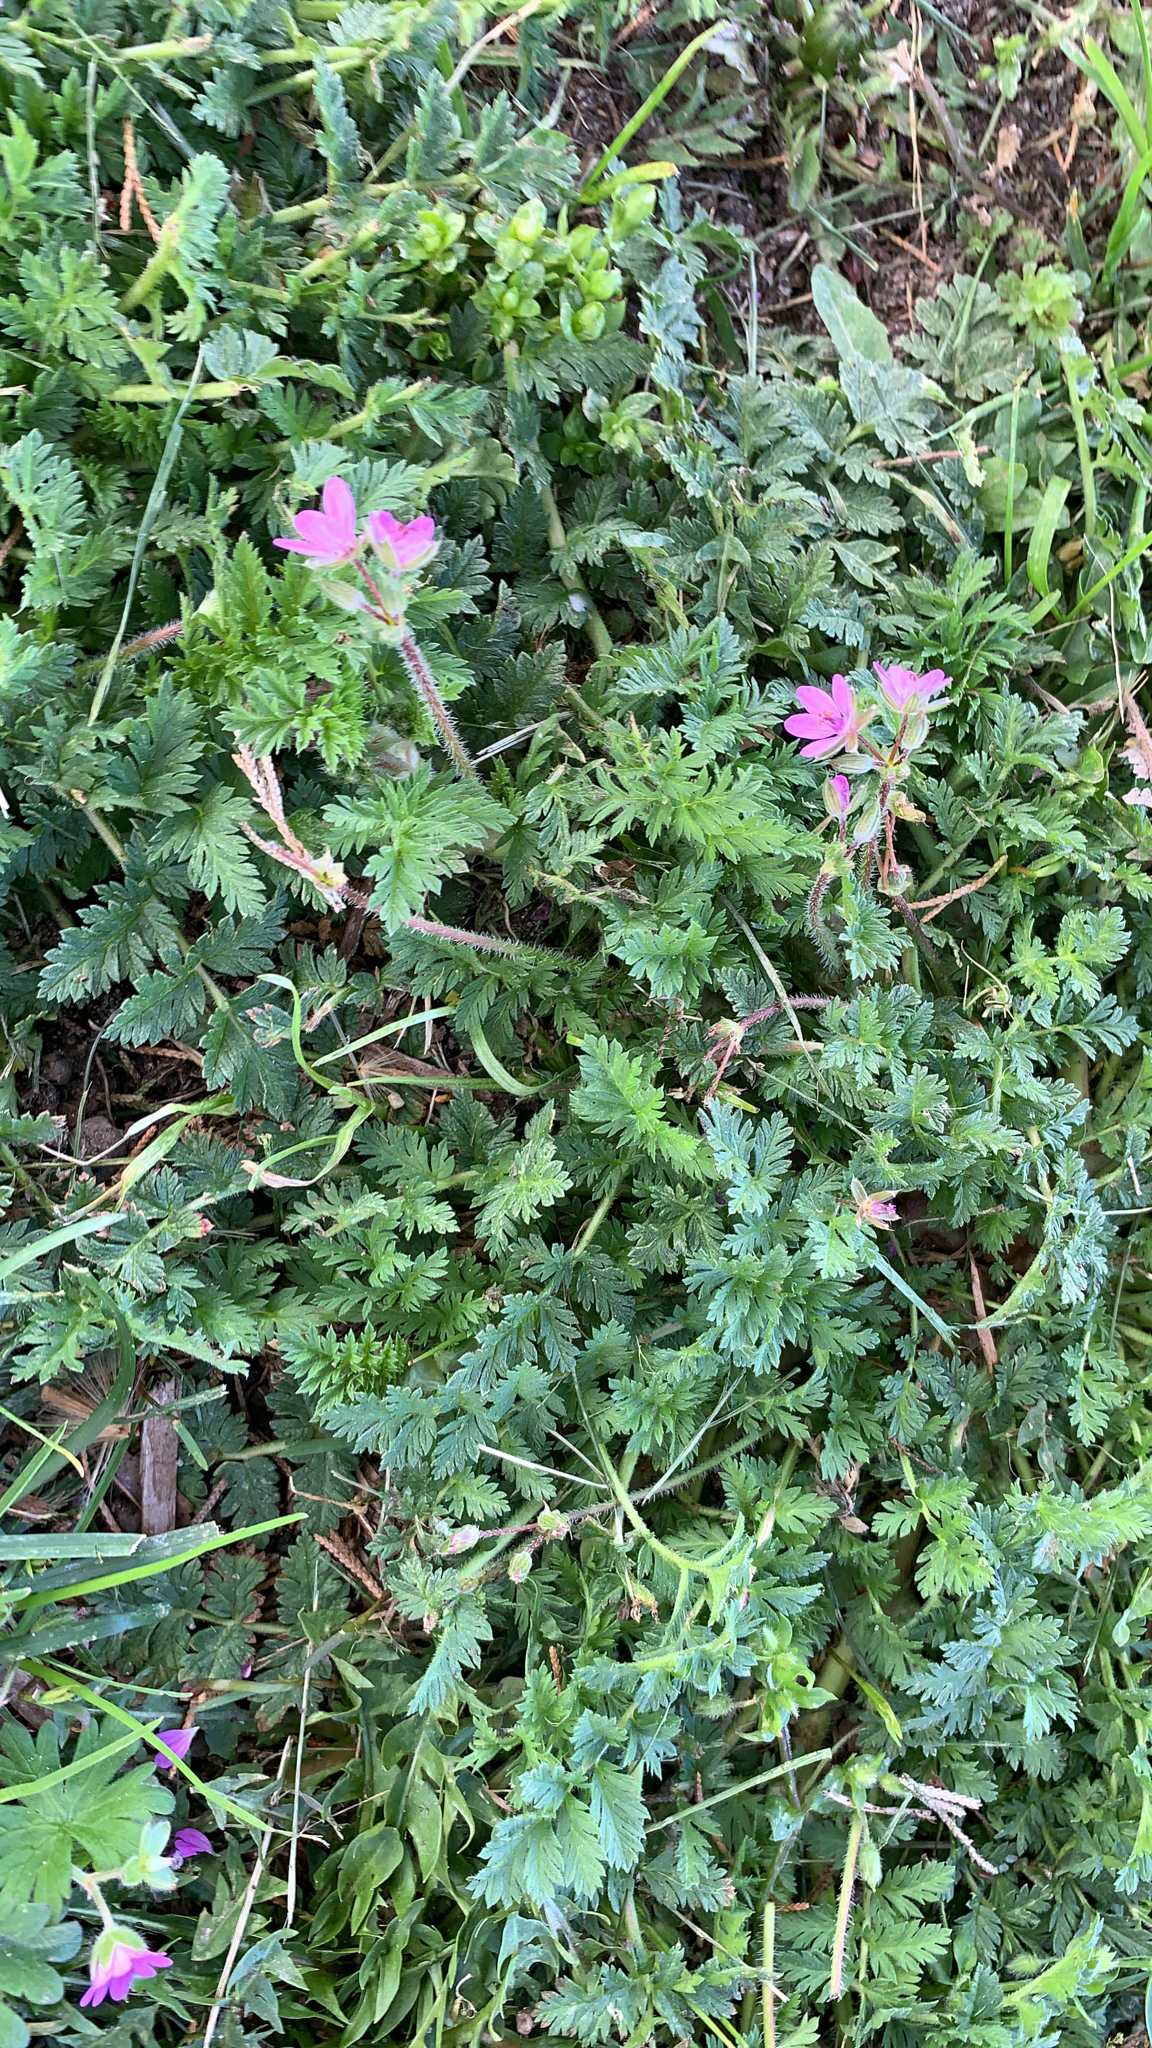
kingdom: Plantae
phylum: Tracheophyta
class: Magnoliopsida
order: Geraniales
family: Geraniaceae
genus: Erodium
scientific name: Erodium
